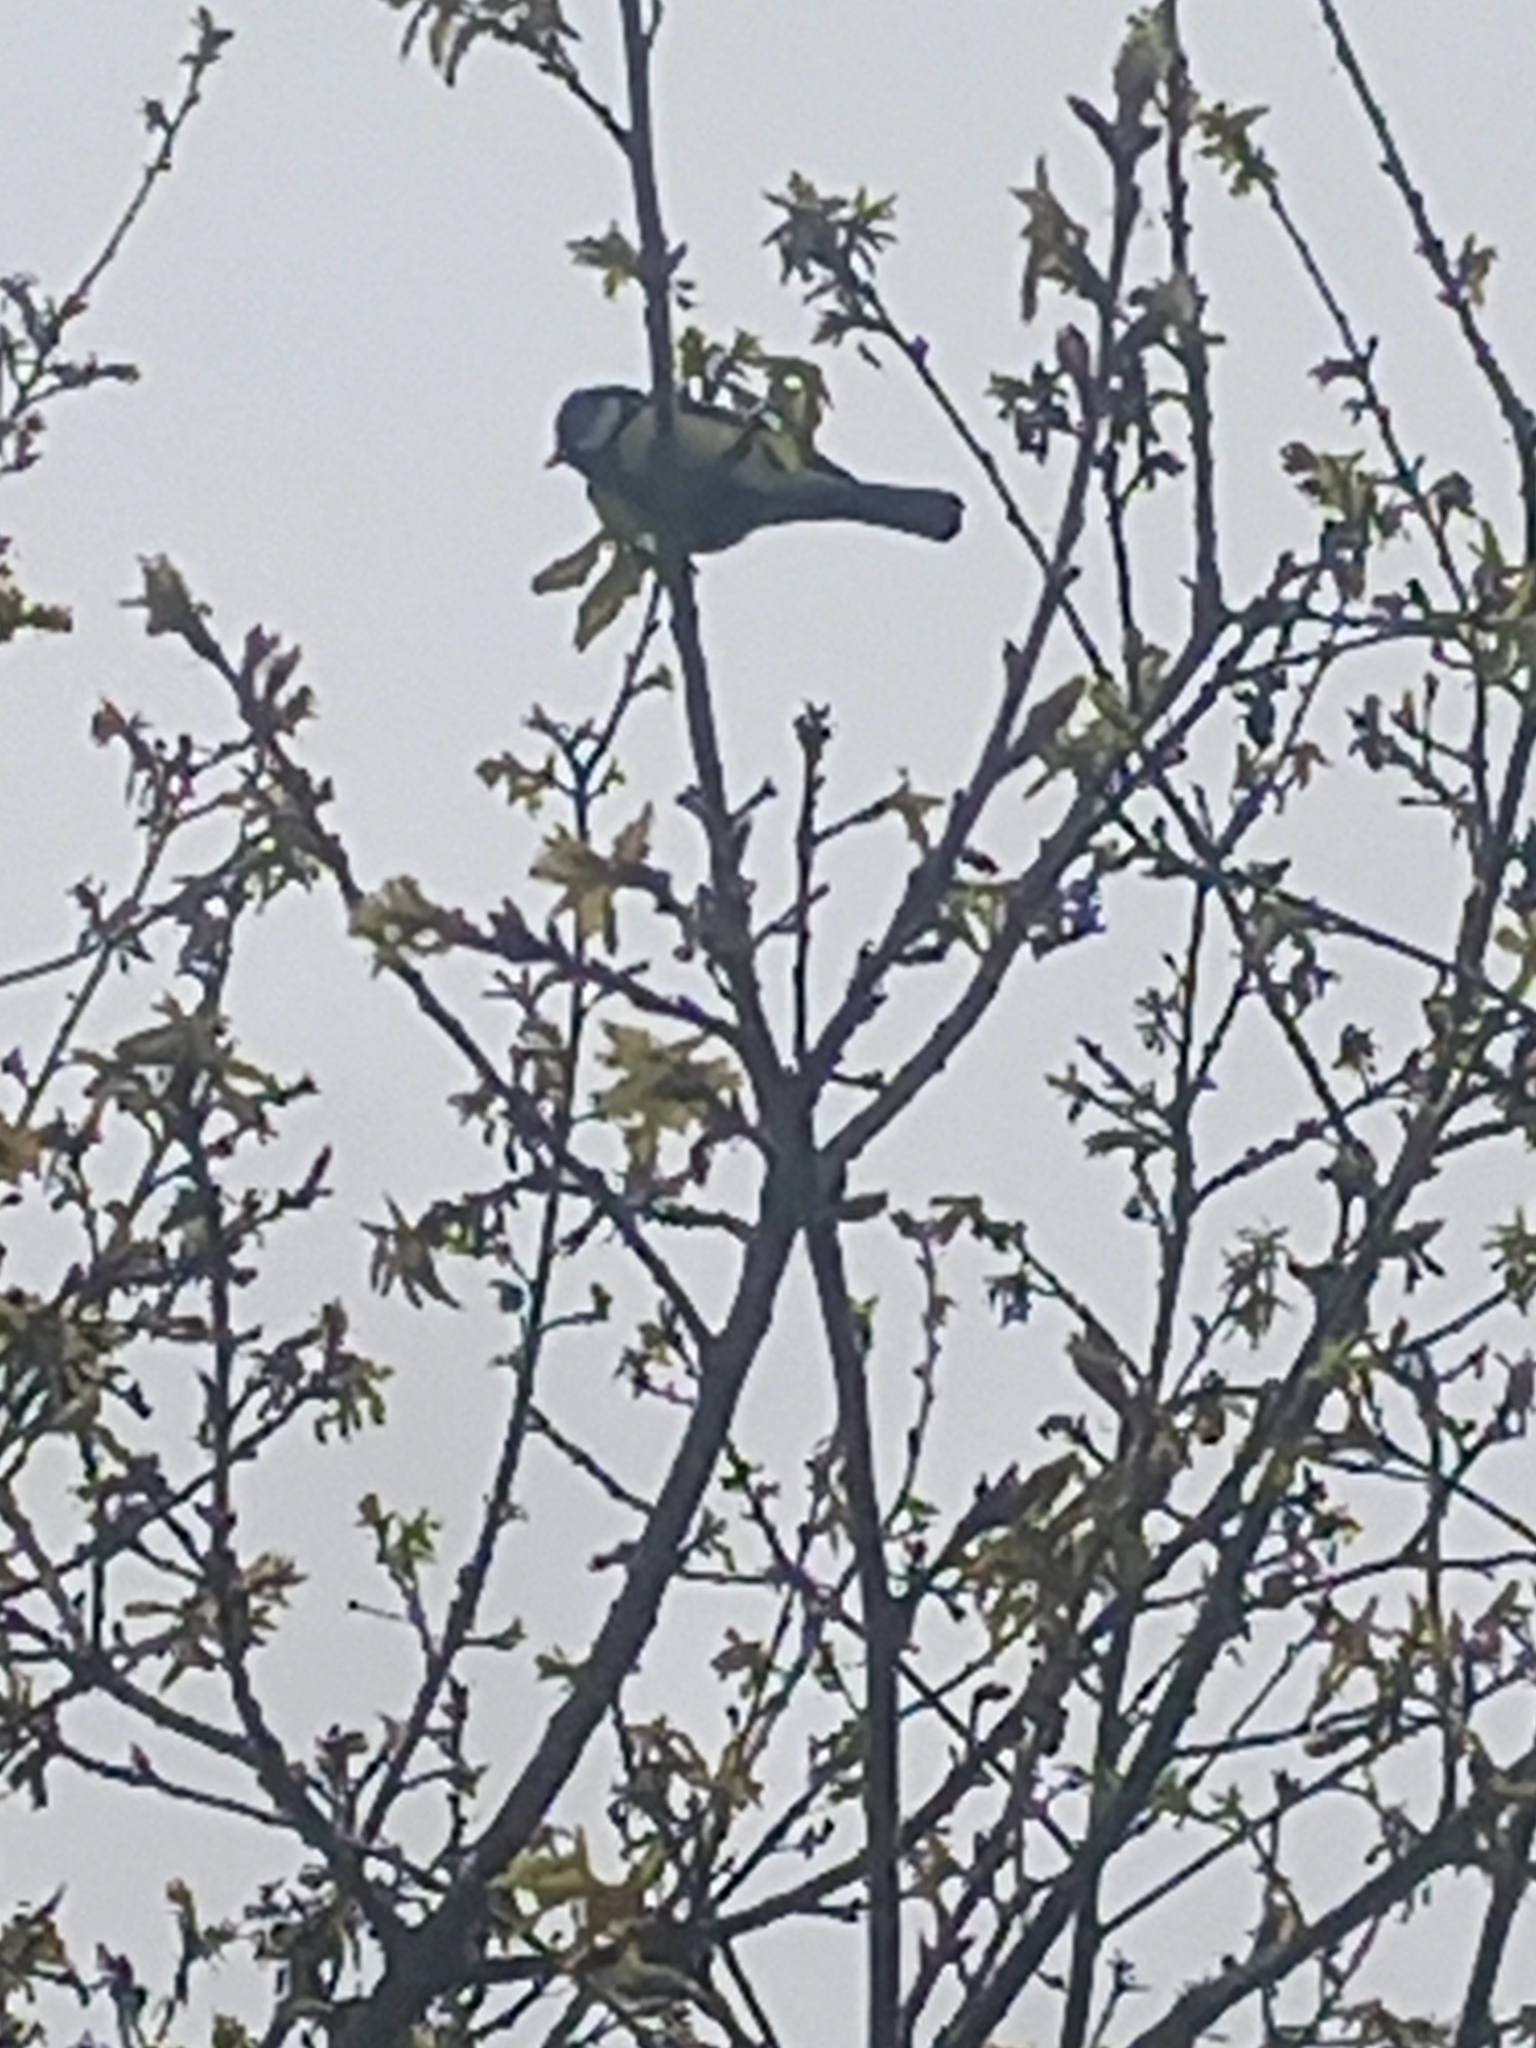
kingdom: Animalia
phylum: Chordata
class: Aves
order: Passeriformes
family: Paridae
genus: Parus
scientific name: Parus major
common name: Great tit
